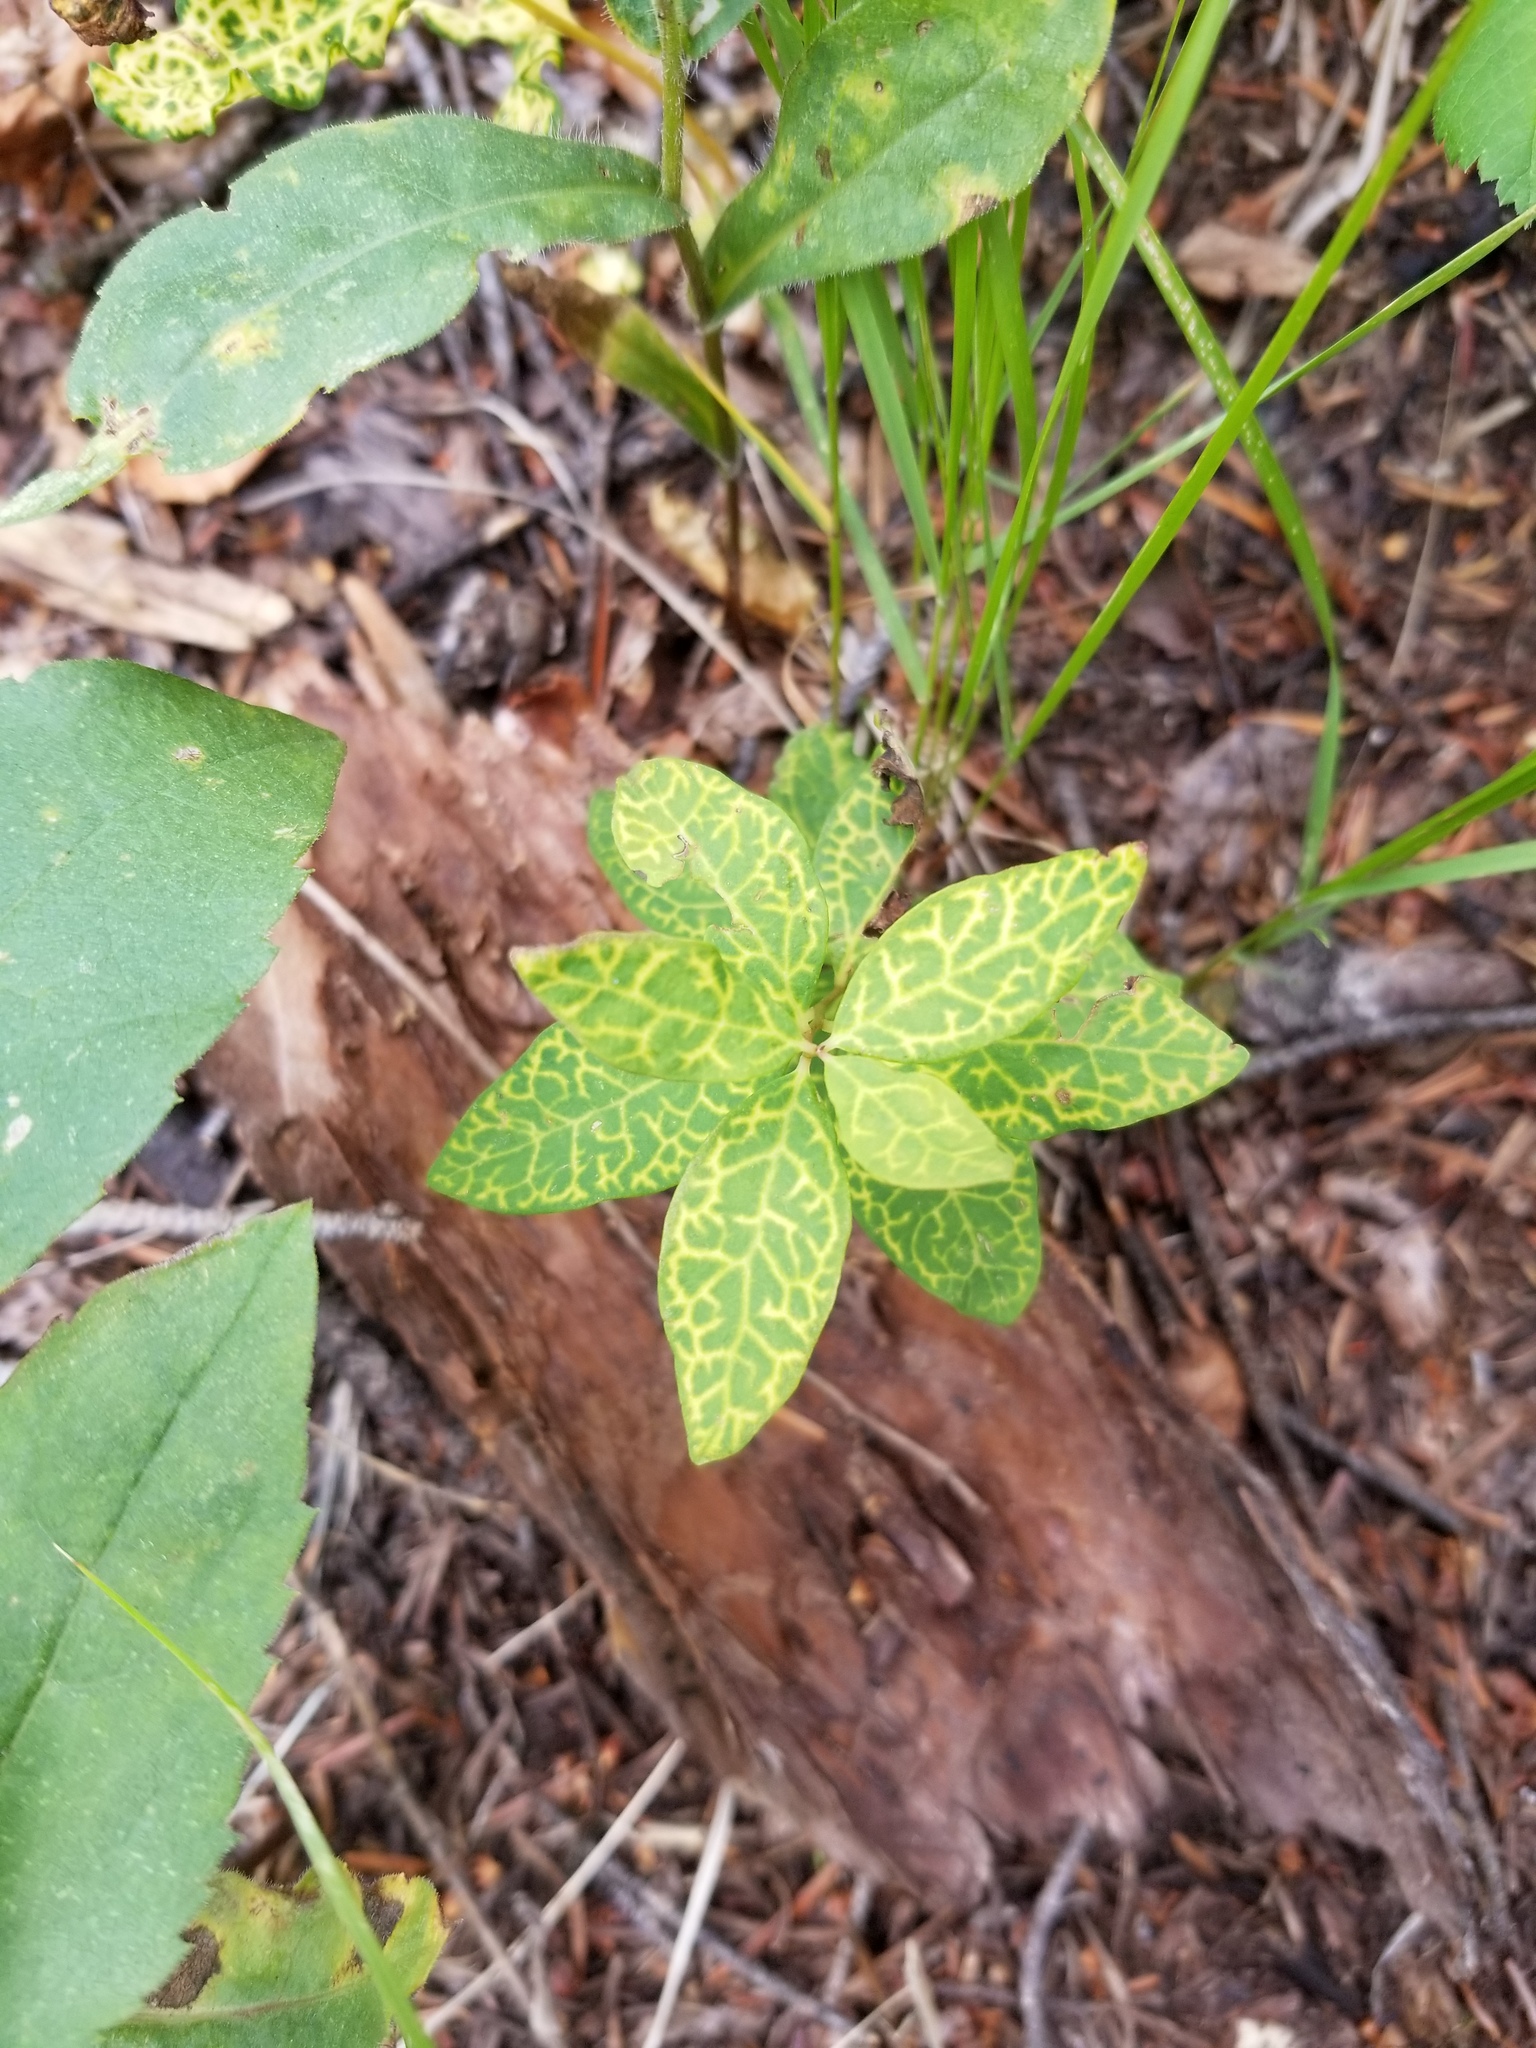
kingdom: Plantae
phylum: Tracheophyta
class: Magnoliopsida
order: Santalales
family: Comandraceae
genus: Geocaulon
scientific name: Geocaulon lividum
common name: Earthberry
